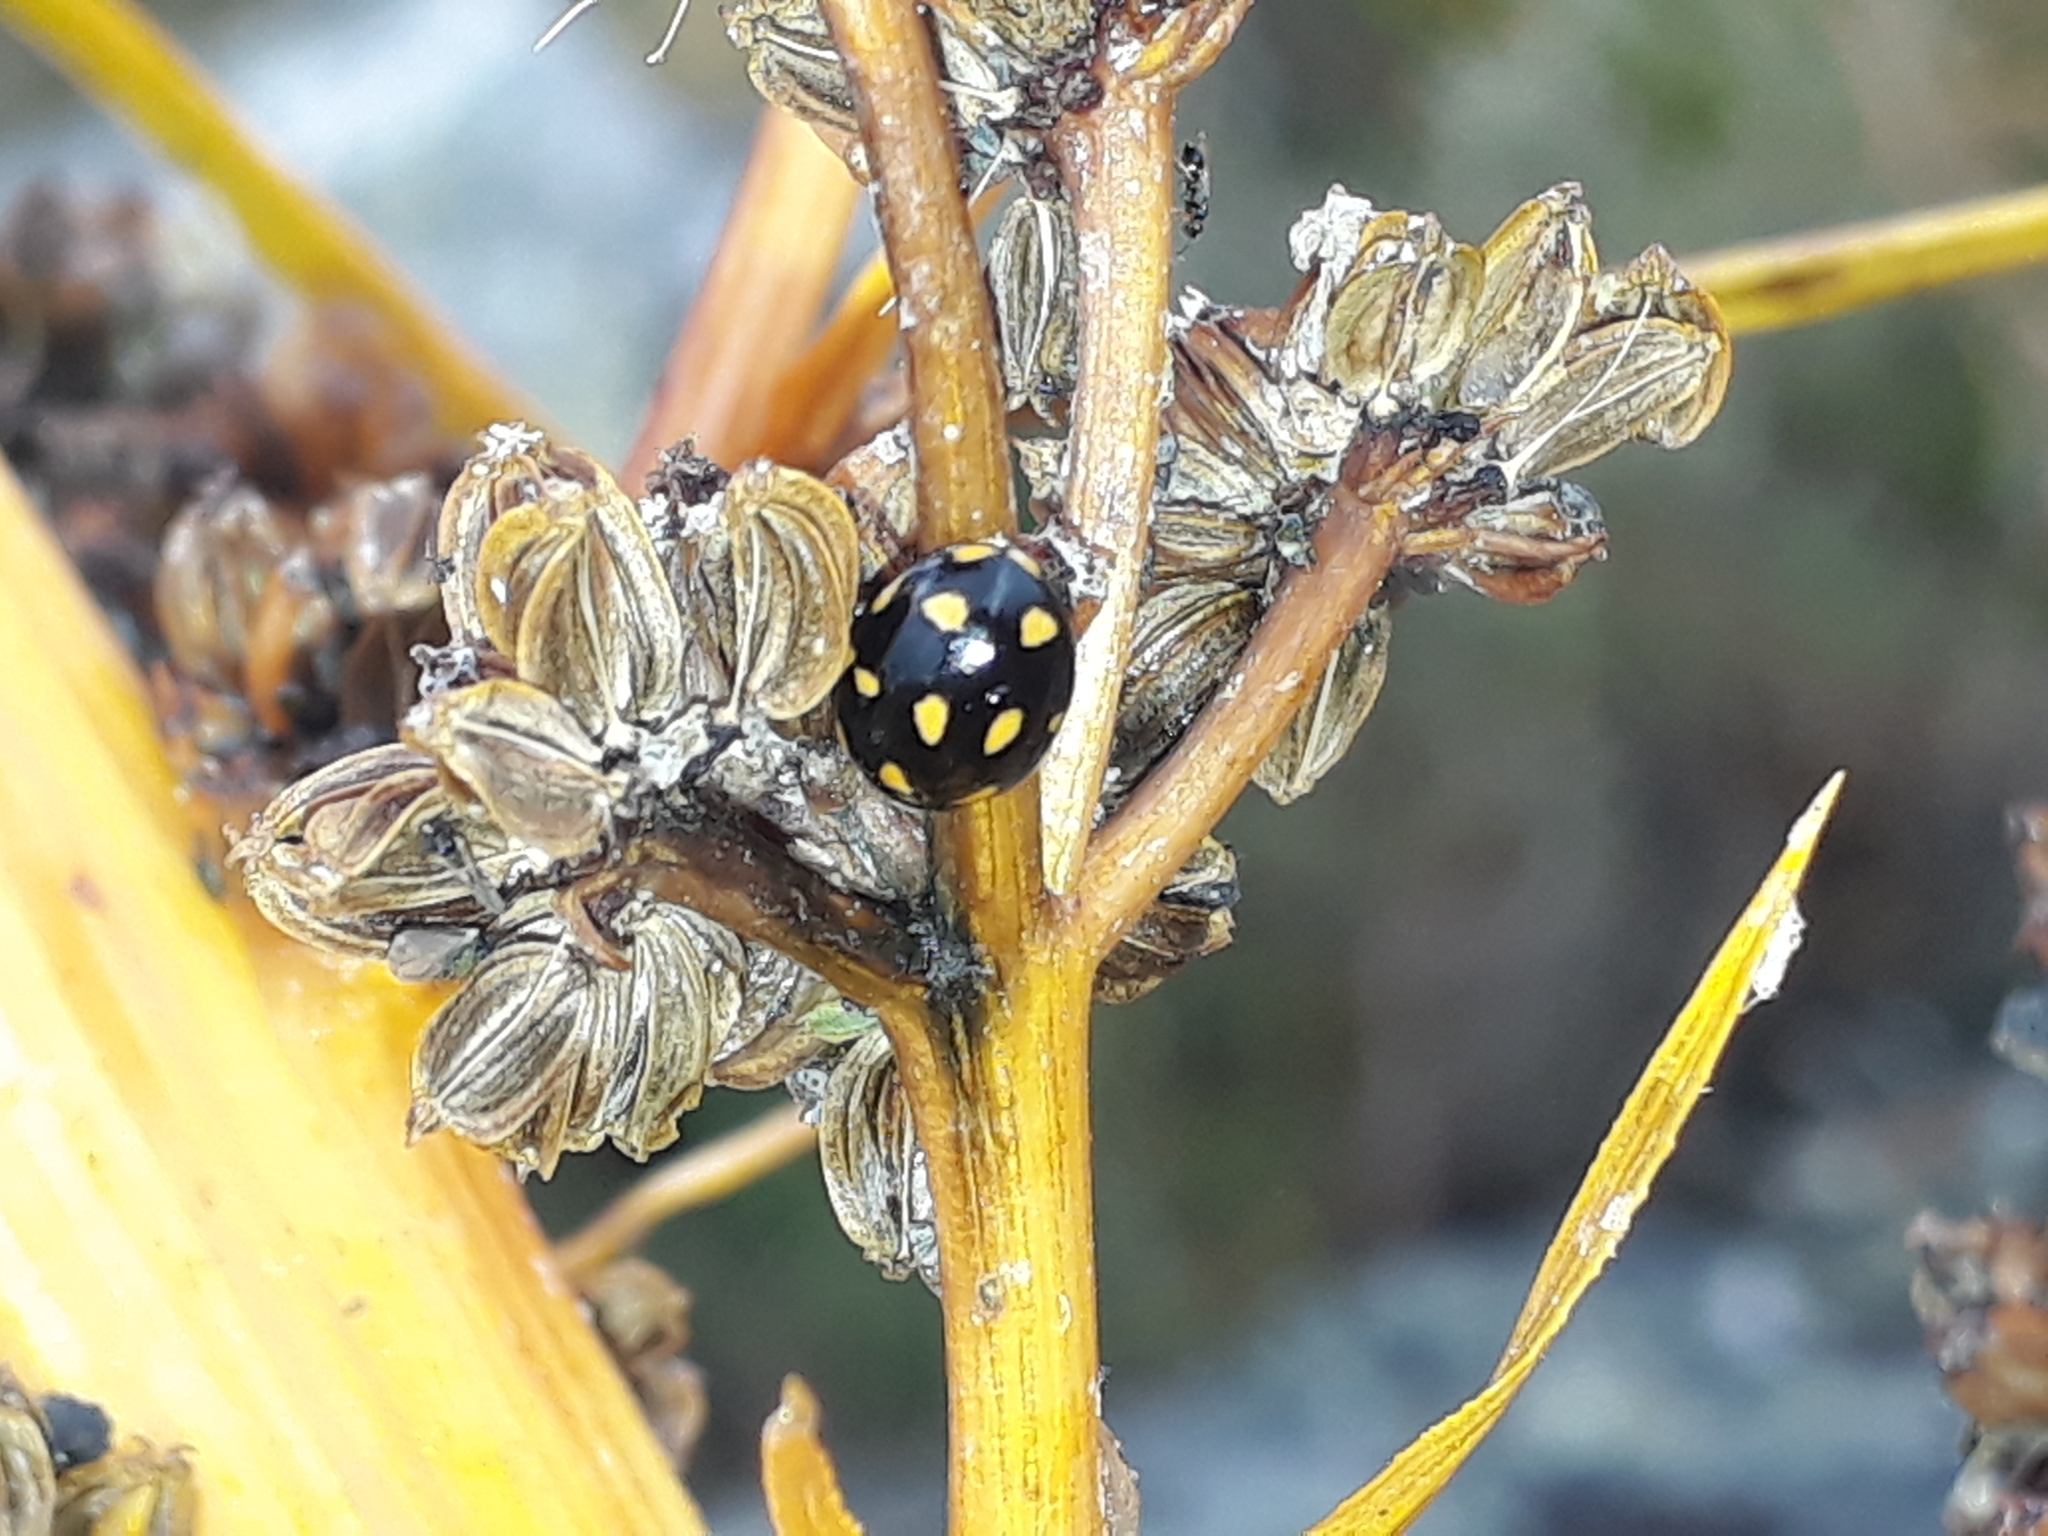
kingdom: Animalia
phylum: Arthropoda
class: Insecta
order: Coleoptera
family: Coccinellidae
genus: Coccinella
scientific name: Coccinella leonina
